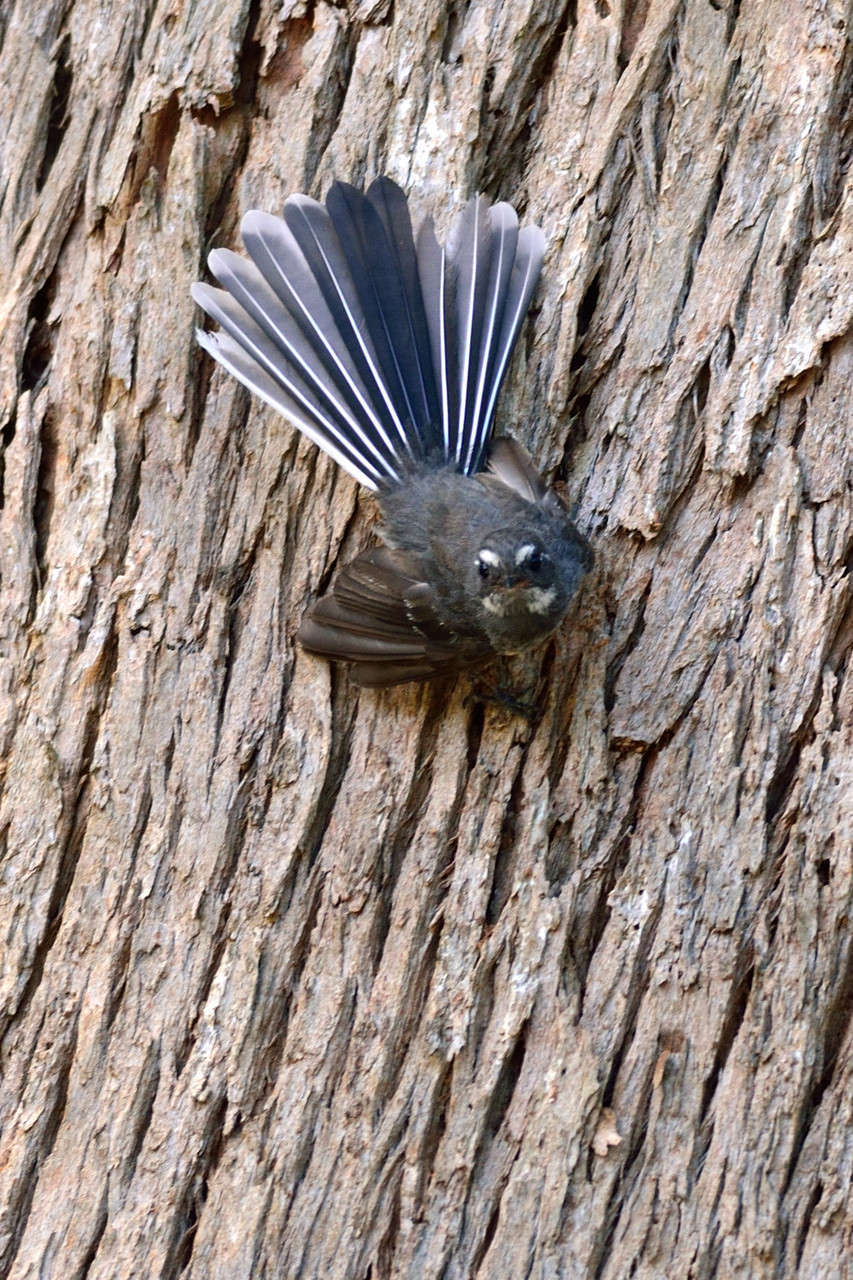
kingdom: Animalia
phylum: Chordata
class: Aves
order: Passeriformes
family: Rhipiduridae
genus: Rhipidura
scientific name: Rhipidura albiscapa
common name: Grey fantail
